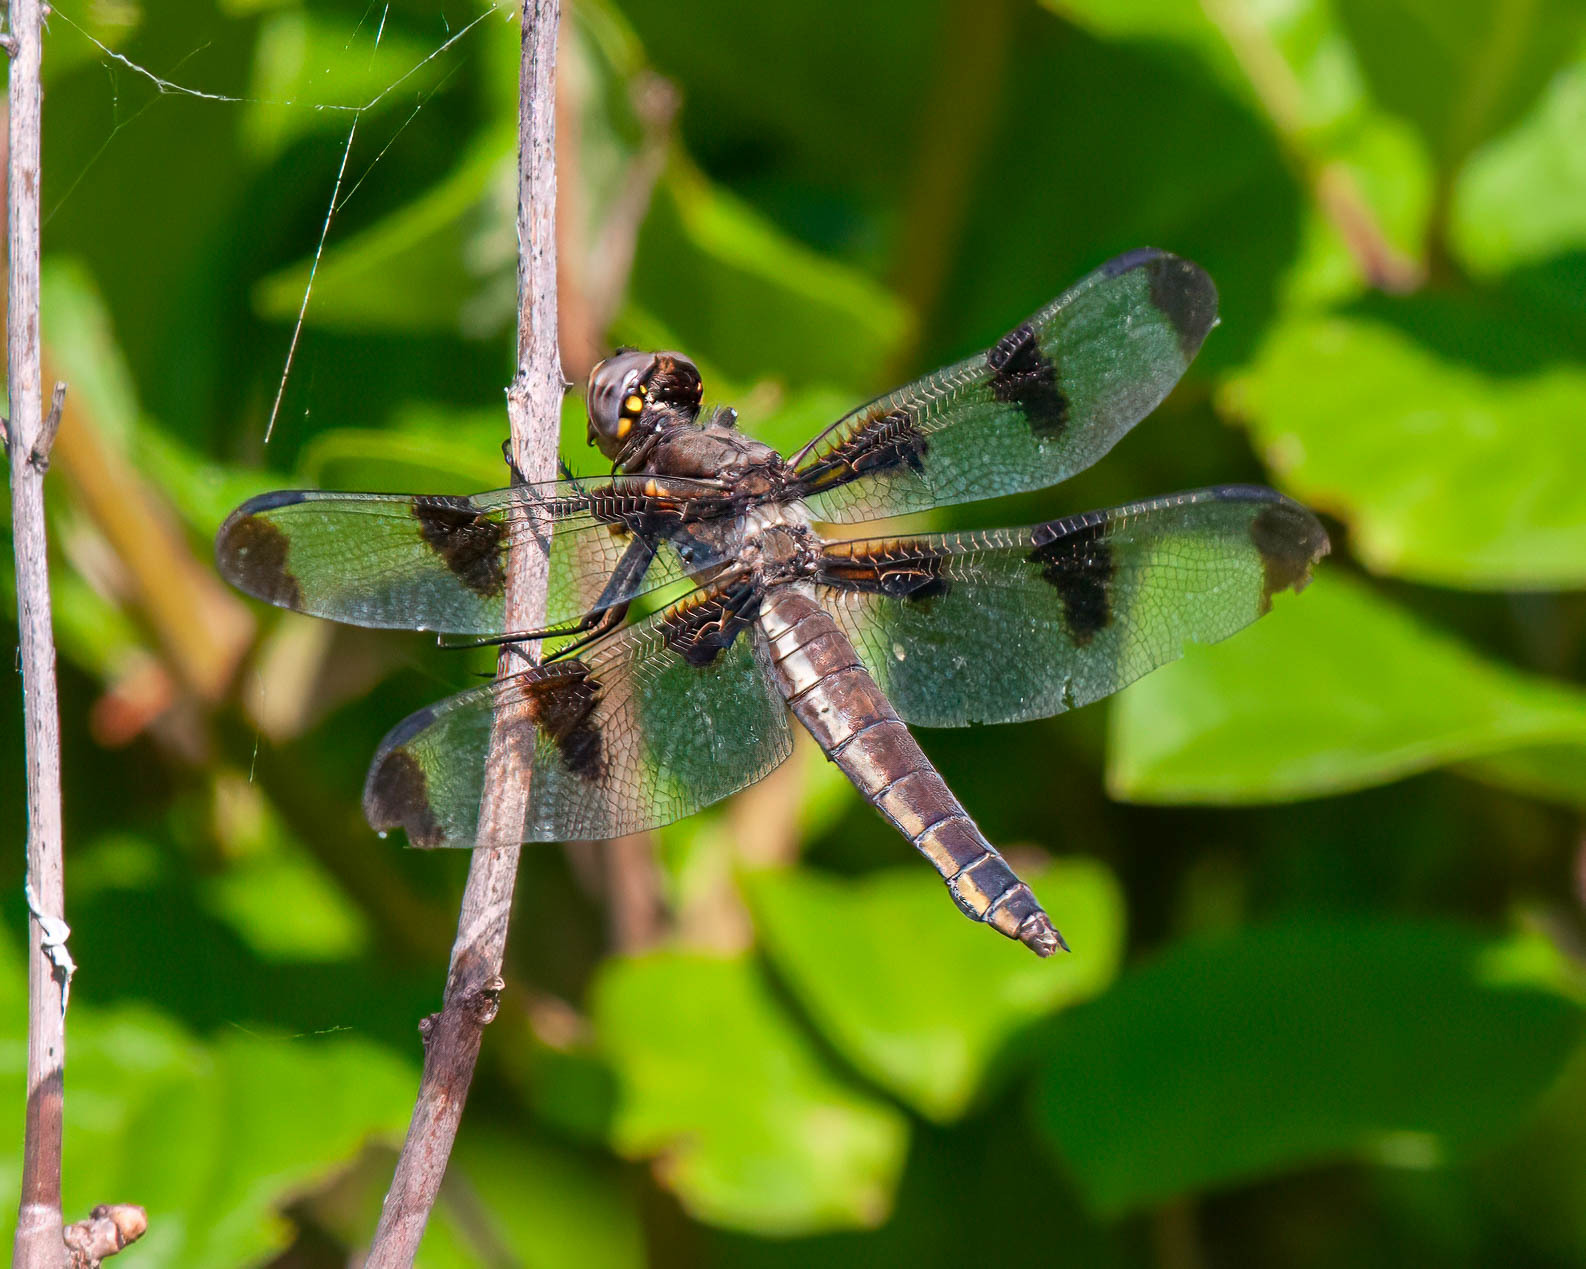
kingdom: Animalia
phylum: Arthropoda
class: Insecta
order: Odonata
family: Libellulidae
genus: Libellula
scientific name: Libellula pulchella
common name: Twelve-spotted skimmer
